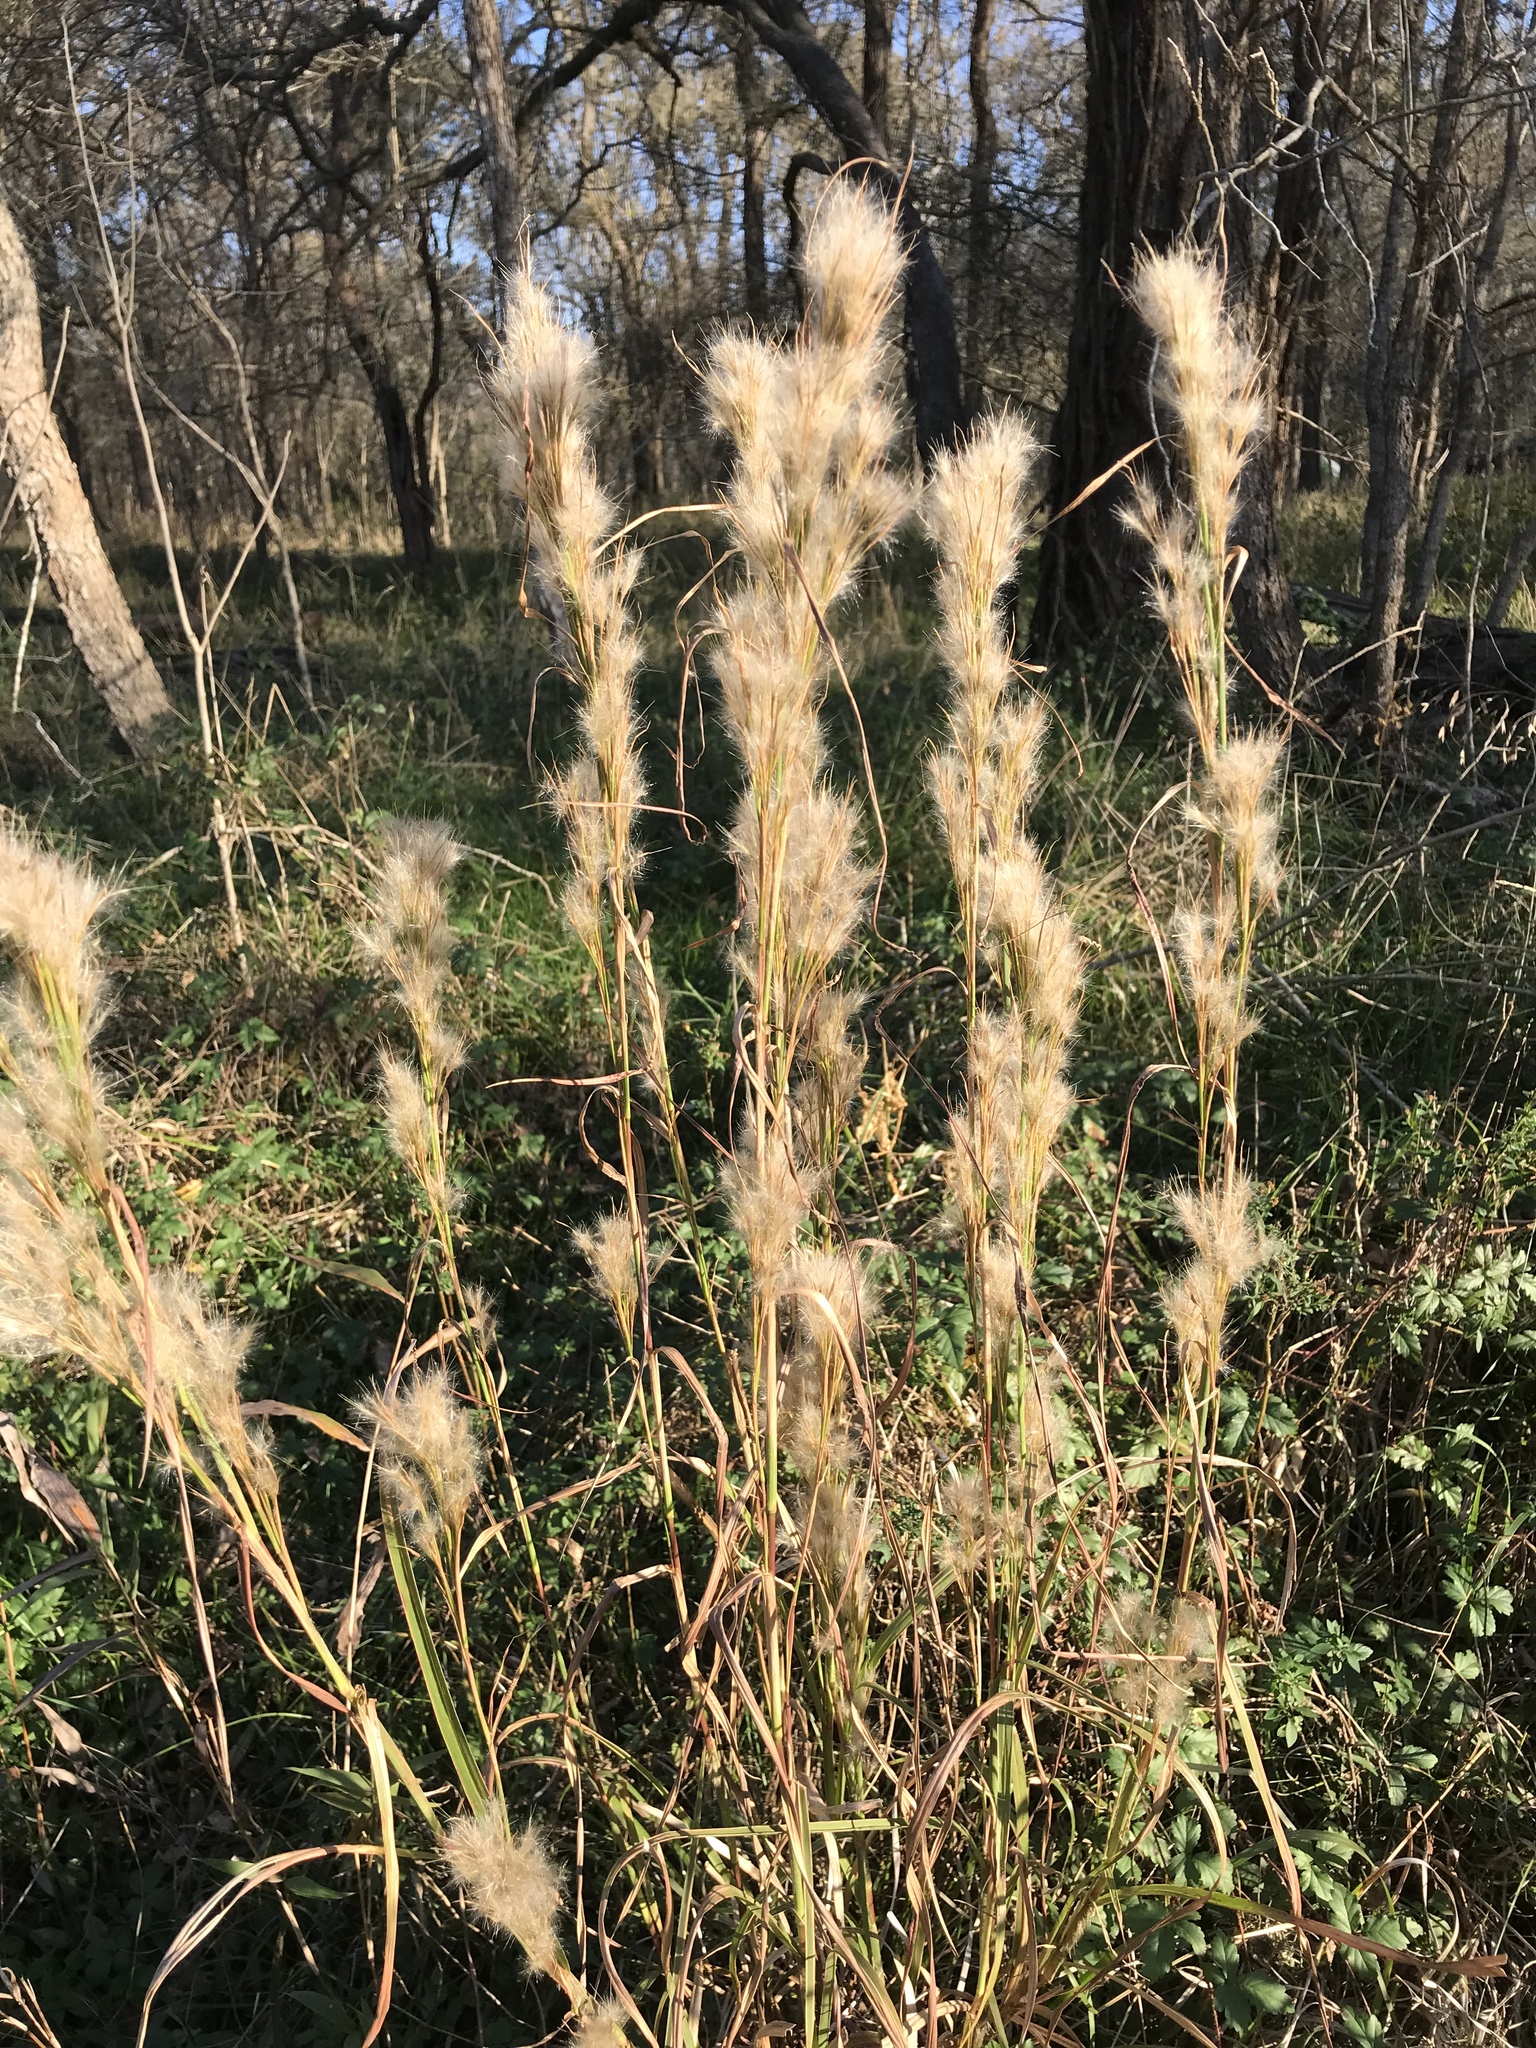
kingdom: Plantae
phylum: Tracheophyta
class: Liliopsida
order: Poales
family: Poaceae
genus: Andropogon
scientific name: Andropogon tenuispatheus
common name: Bushy bluestem
